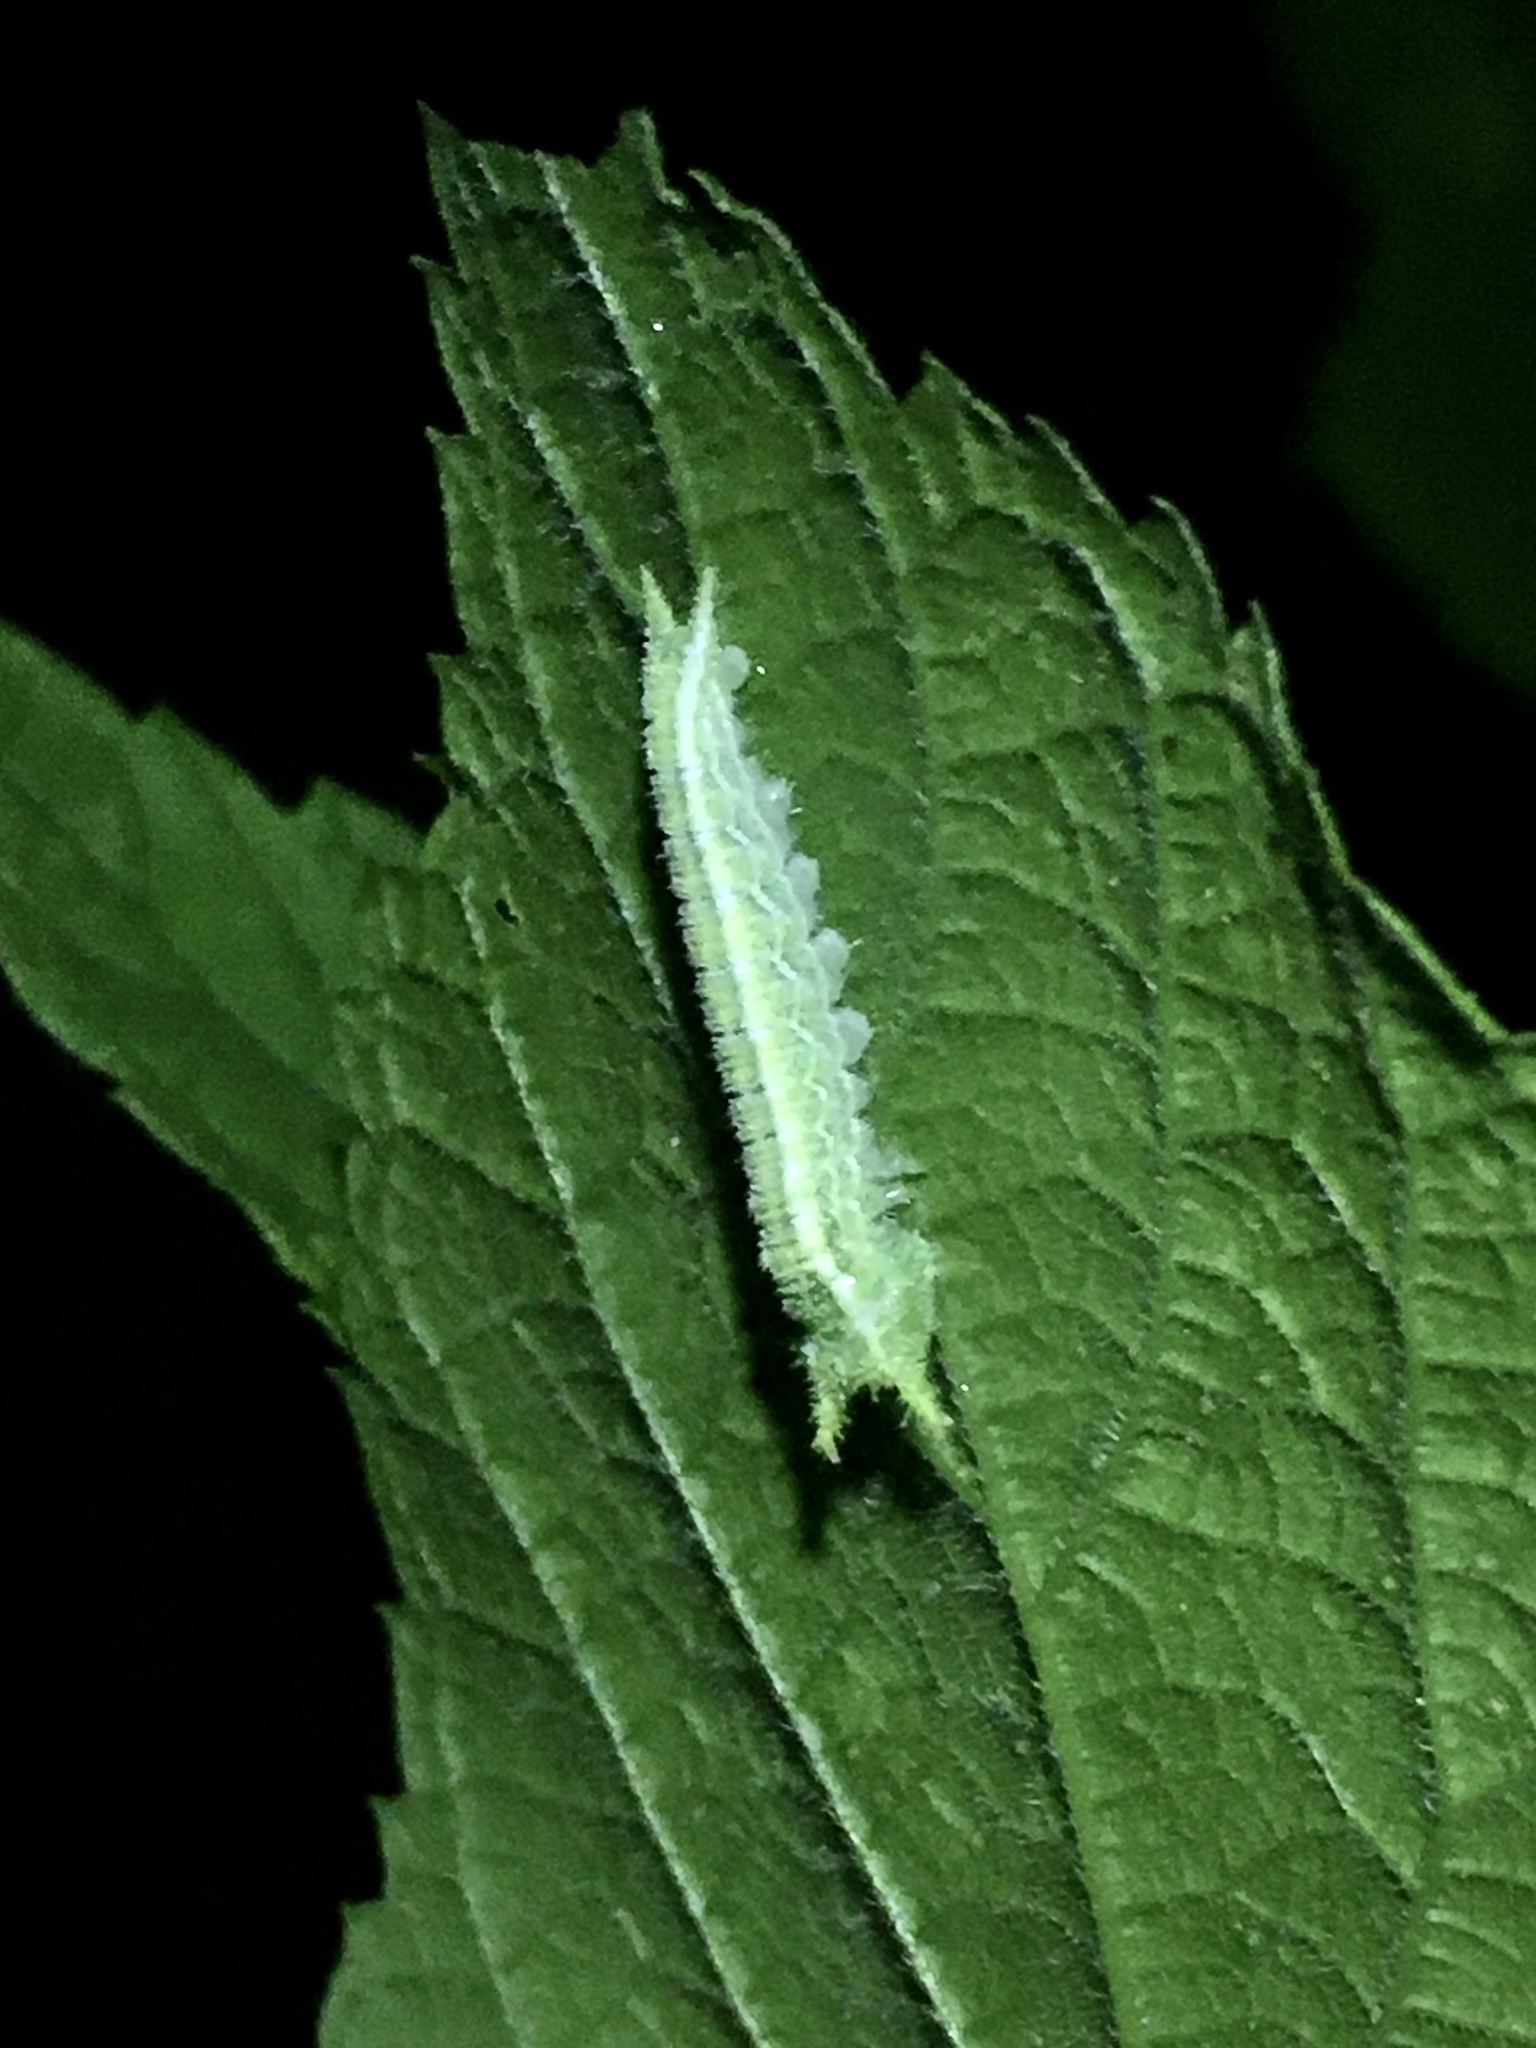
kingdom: Animalia
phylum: Arthropoda
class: Insecta
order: Lepidoptera
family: Nymphalidae
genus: Asterocampa
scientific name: Asterocampa celtis
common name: Hackberry emperor
